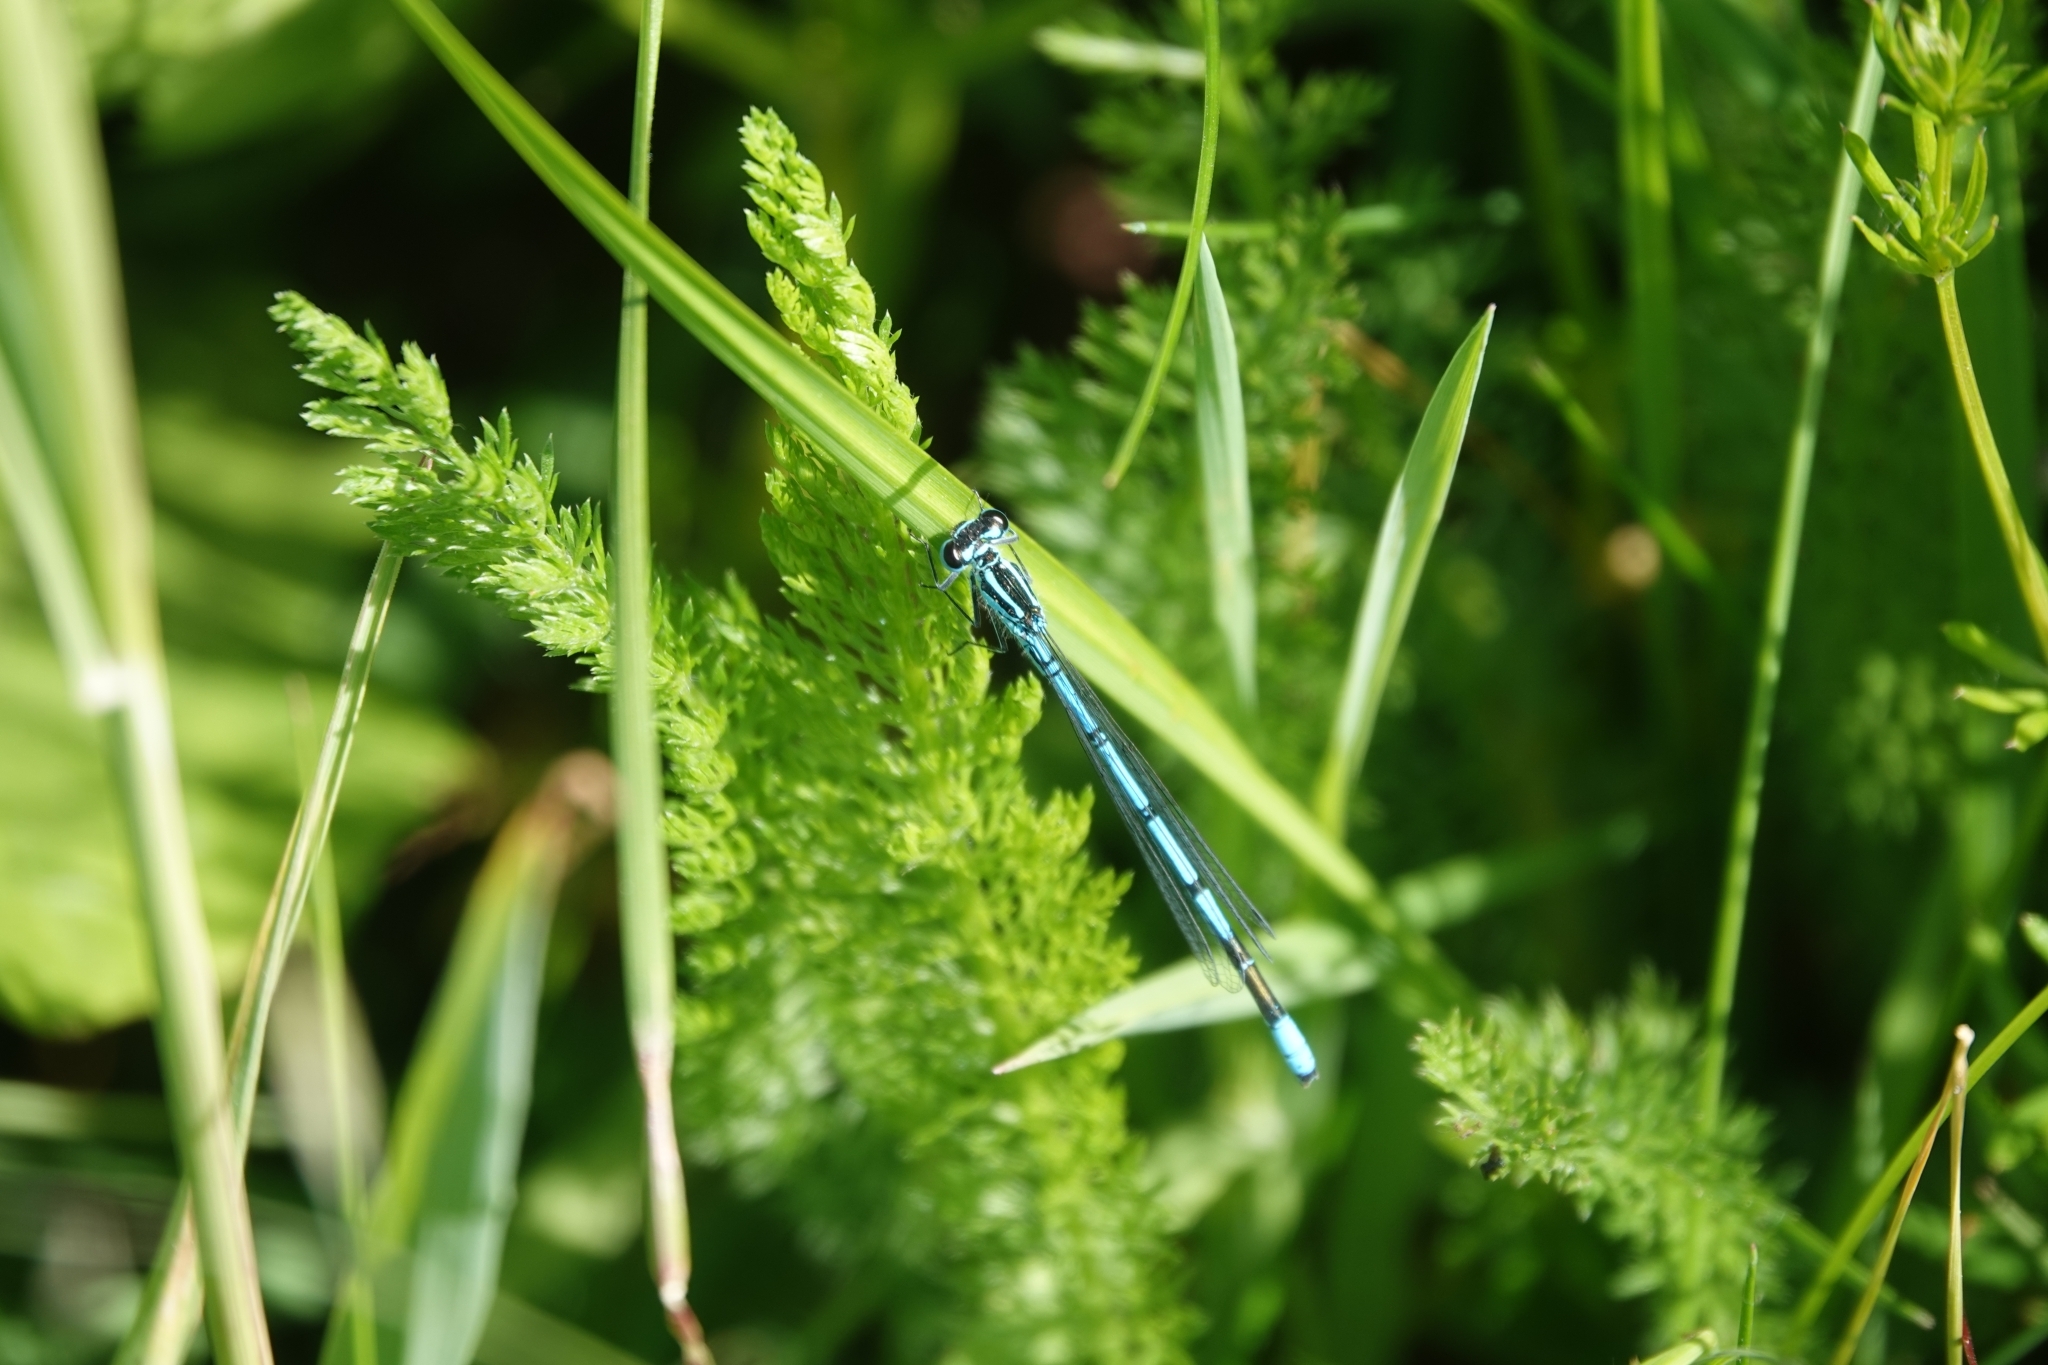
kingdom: Animalia
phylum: Arthropoda
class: Insecta
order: Odonata
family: Coenagrionidae
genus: Coenagrion
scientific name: Coenagrion puella
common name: Azure damselfly
